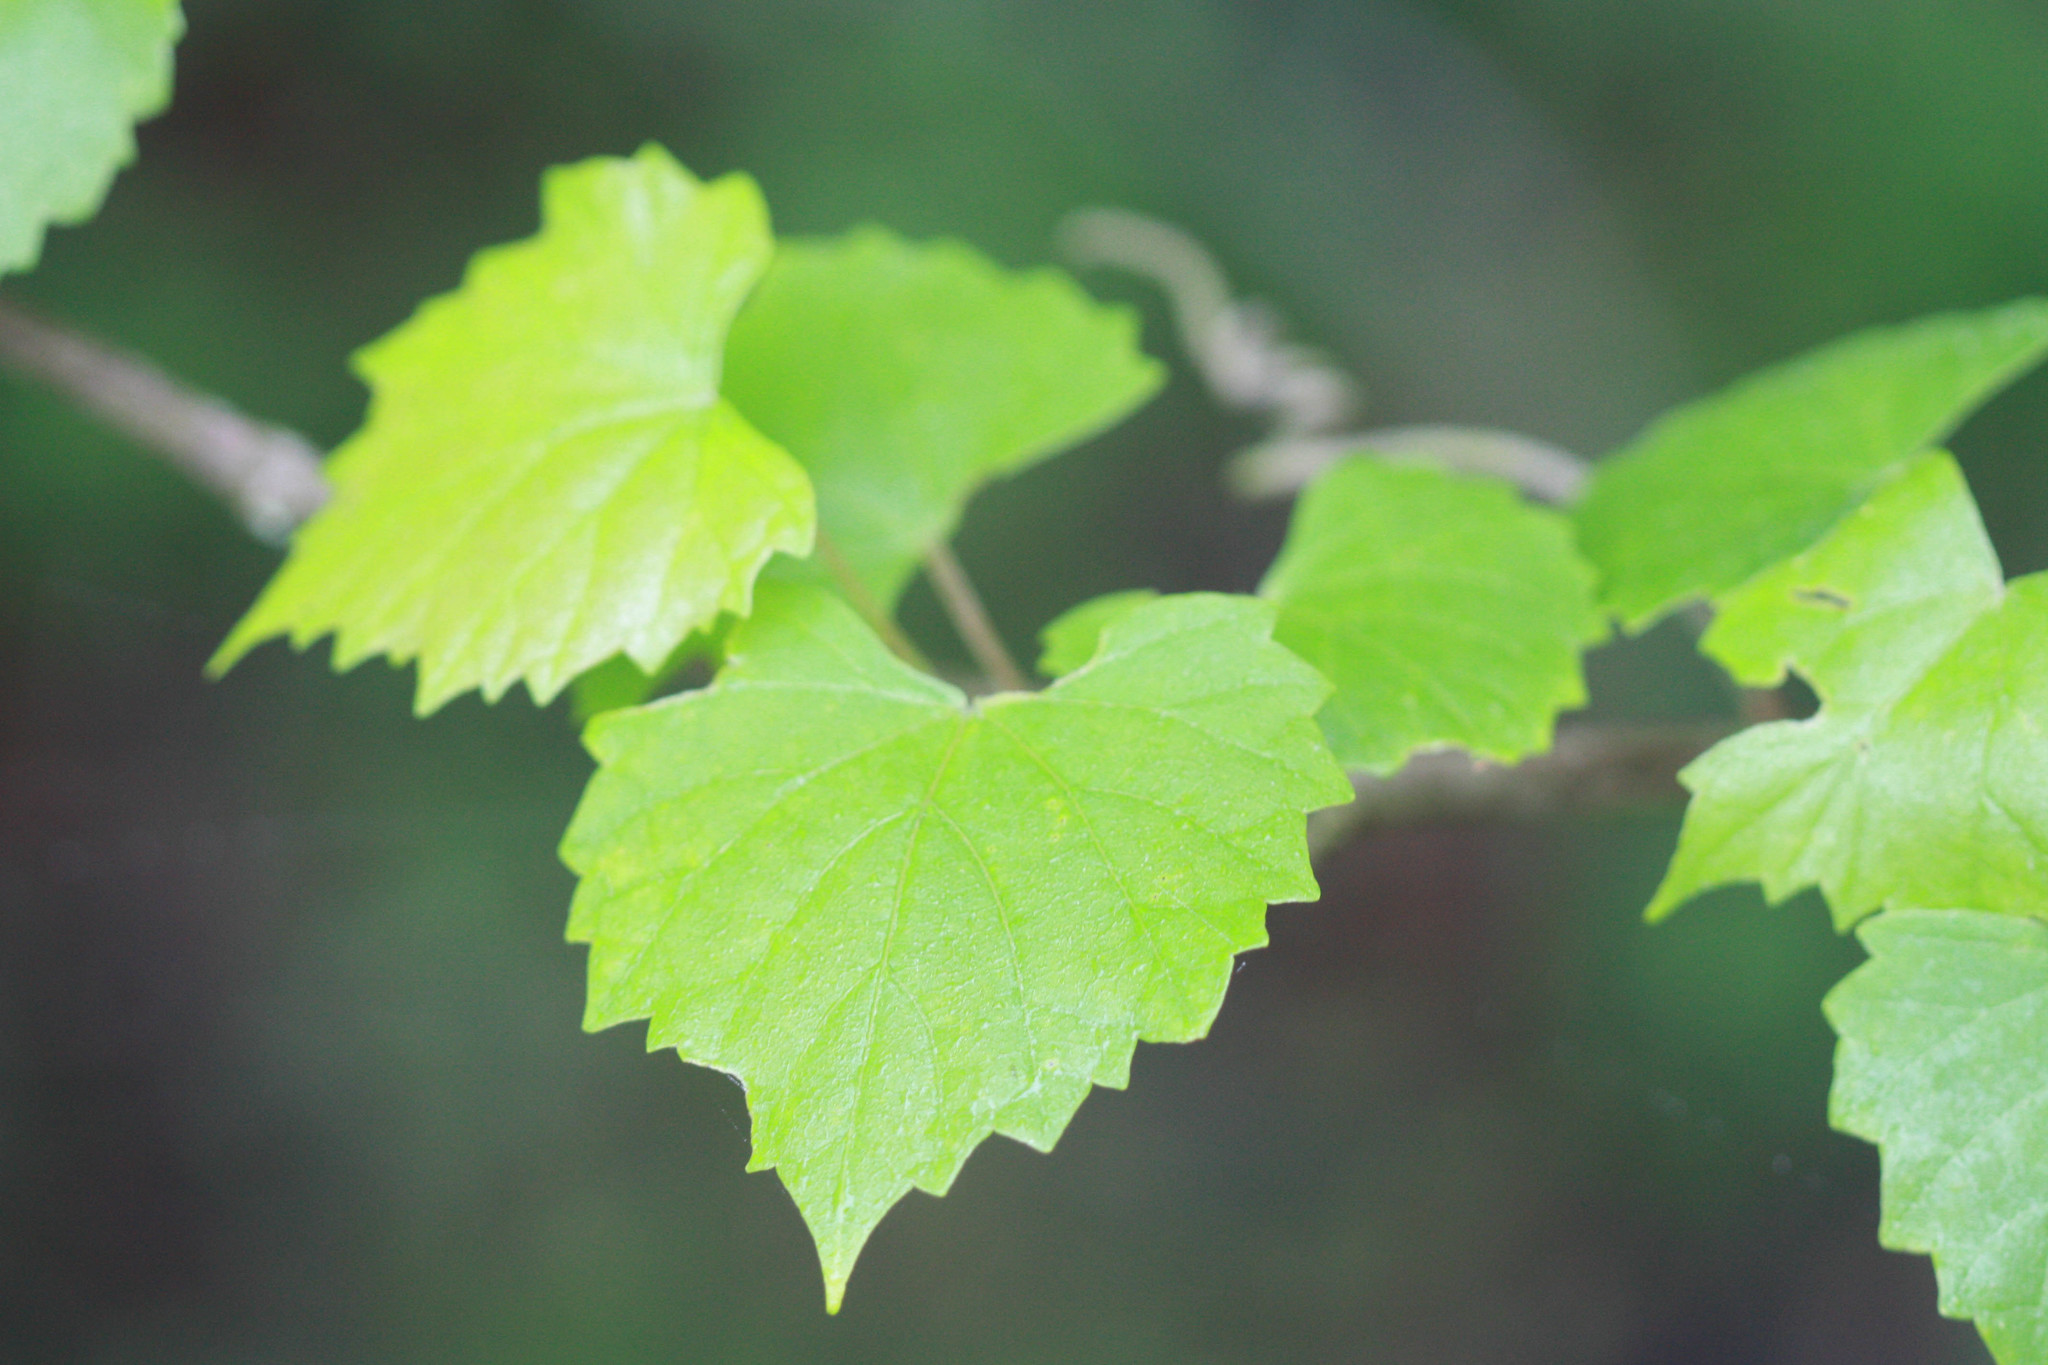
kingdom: Plantae
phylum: Tracheophyta
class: Magnoliopsida
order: Vitales
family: Vitaceae
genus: Vitis
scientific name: Vitis rotundifolia
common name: Muscadine grape
